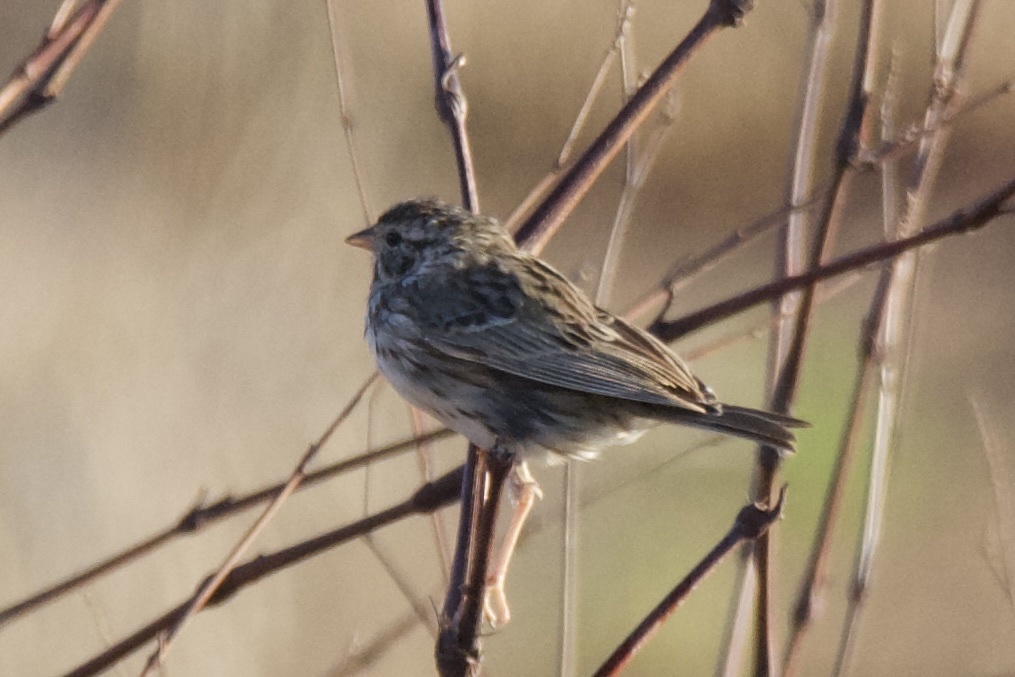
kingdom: Animalia
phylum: Chordata
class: Aves
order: Passeriformes
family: Passerellidae
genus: Passerculus
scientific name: Passerculus sandwichensis
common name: Savannah sparrow
